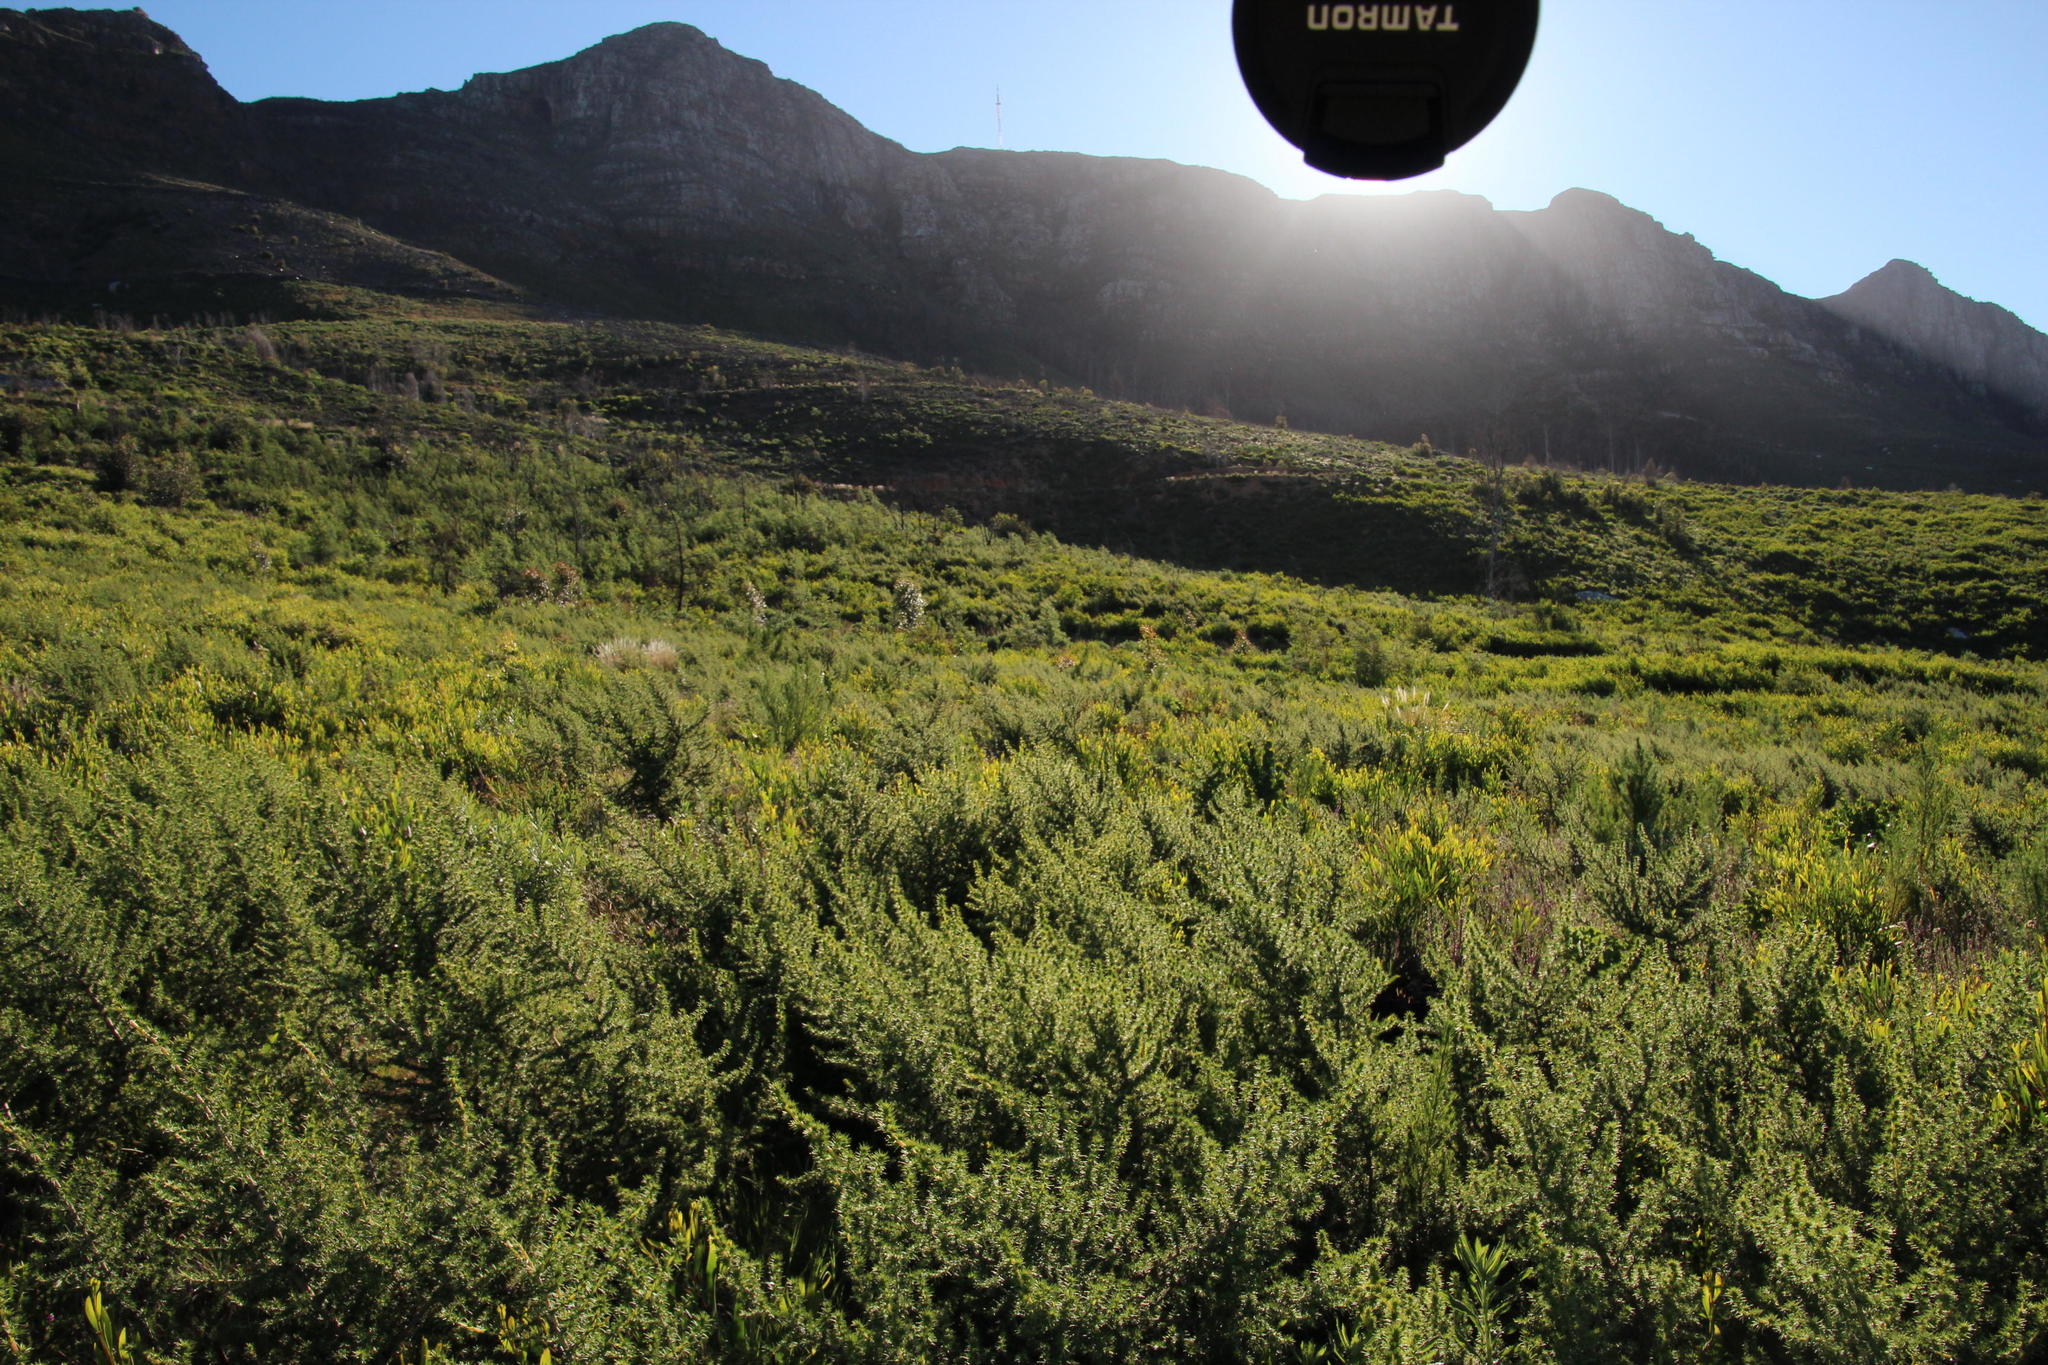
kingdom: Plantae
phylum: Tracheophyta
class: Magnoliopsida
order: Fabales
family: Fabaceae
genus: Aspalathus
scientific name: Aspalathus astroites
